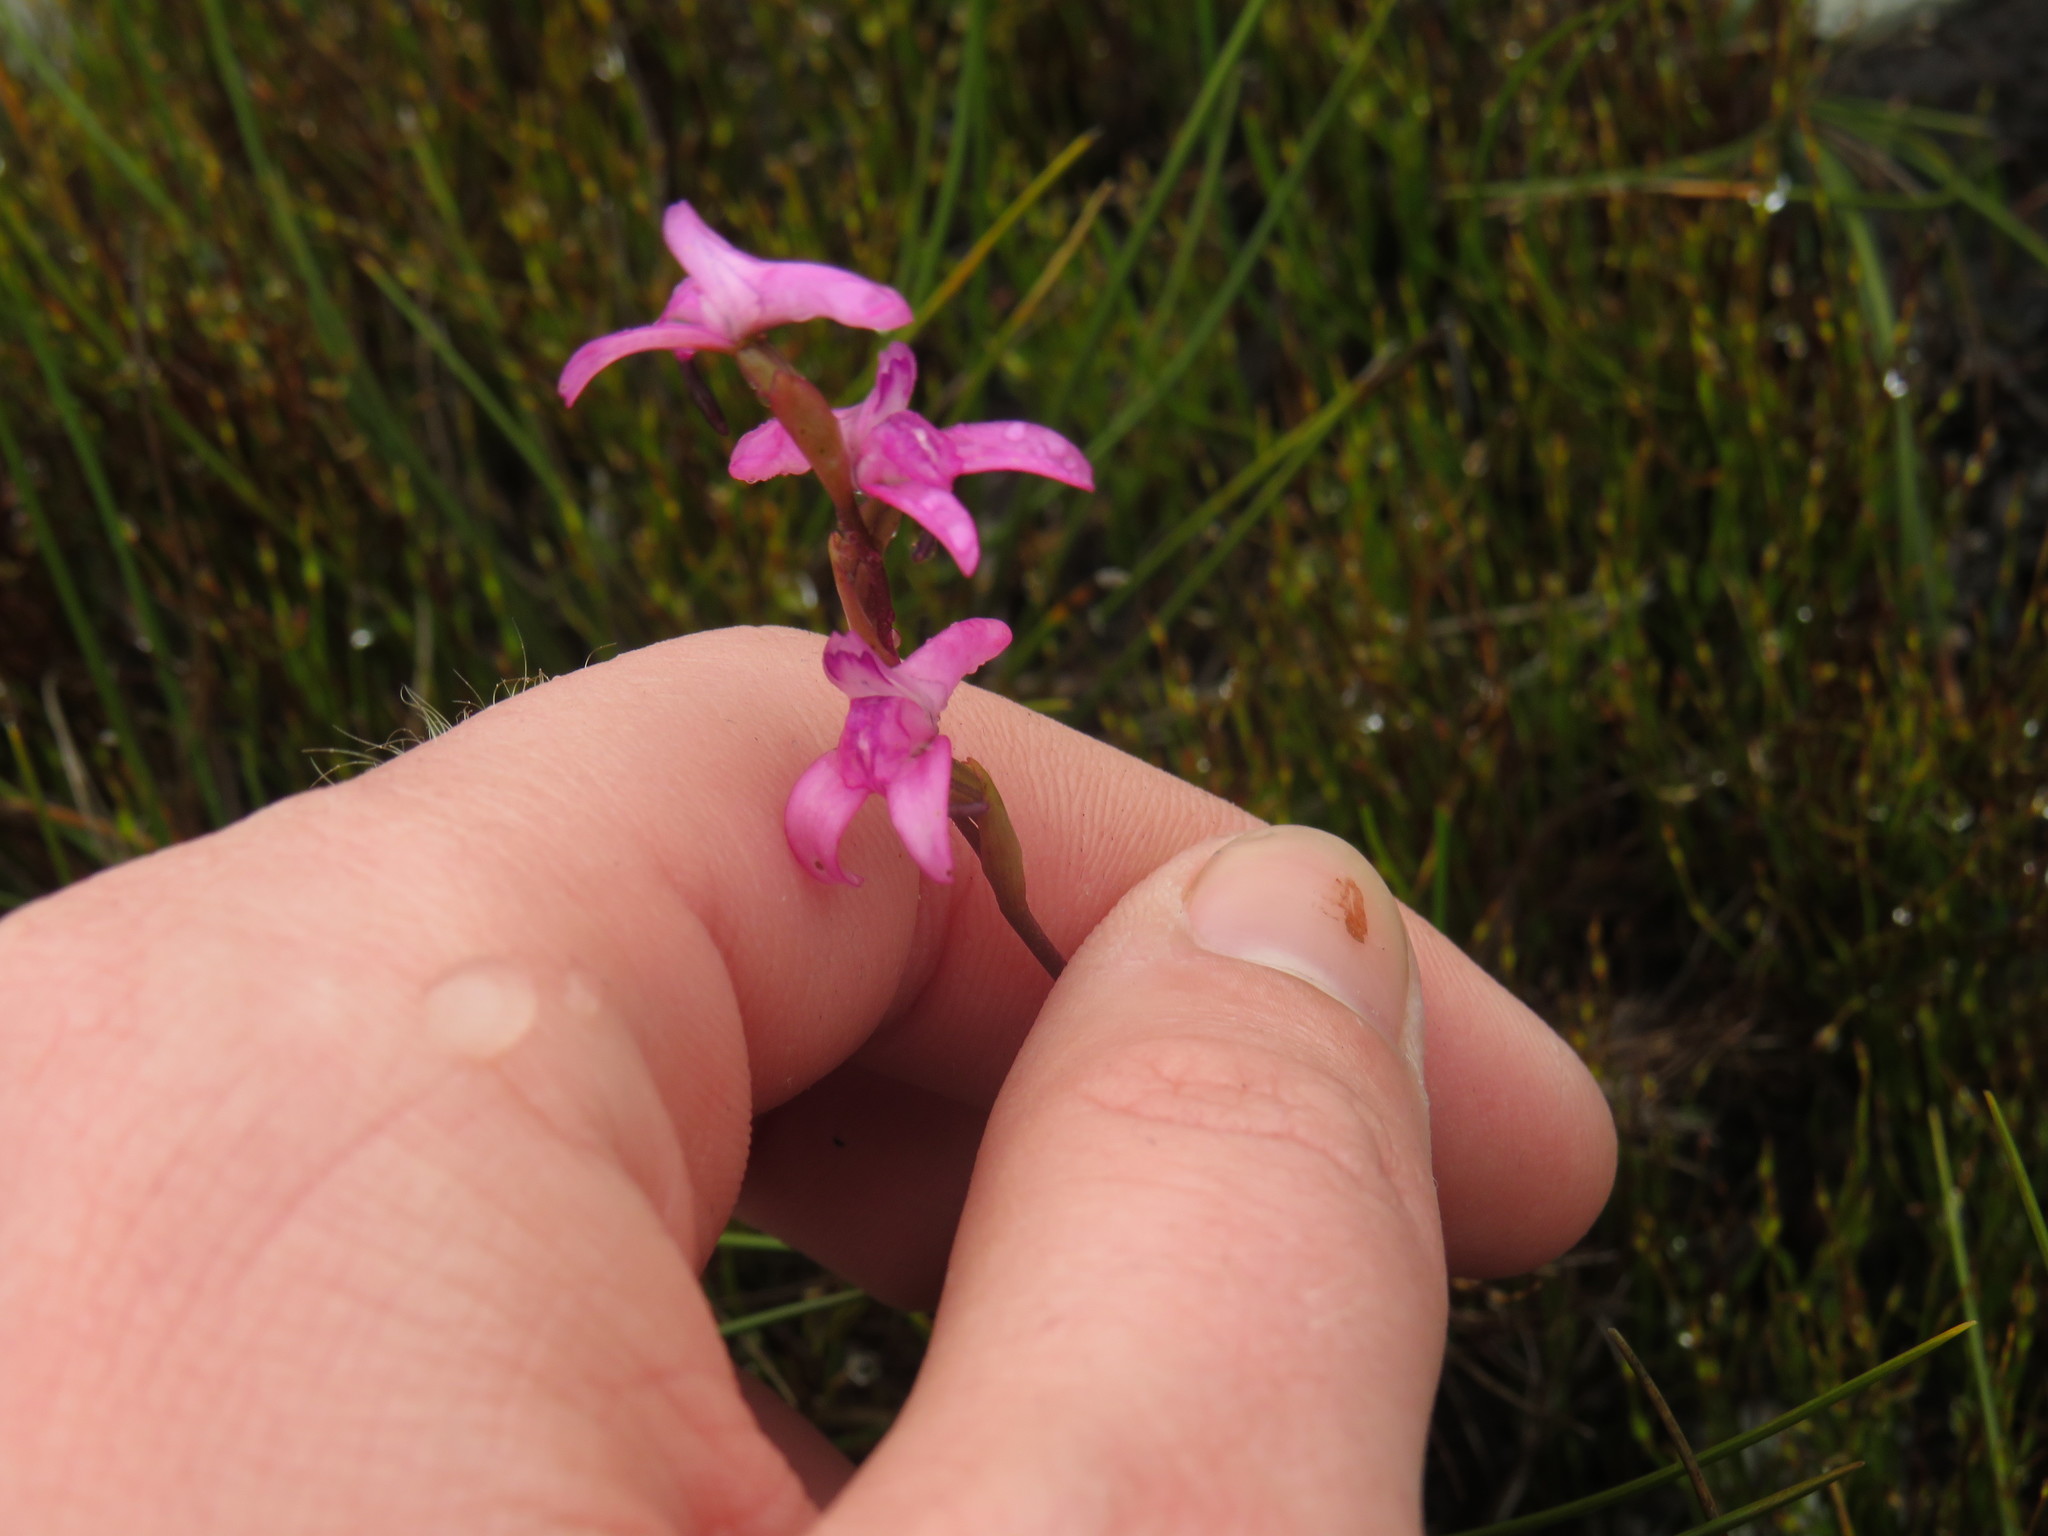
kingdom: Plantae
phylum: Tracheophyta
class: Liliopsida
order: Asparagales
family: Orchidaceae
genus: Disa
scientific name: Disa inflexa
